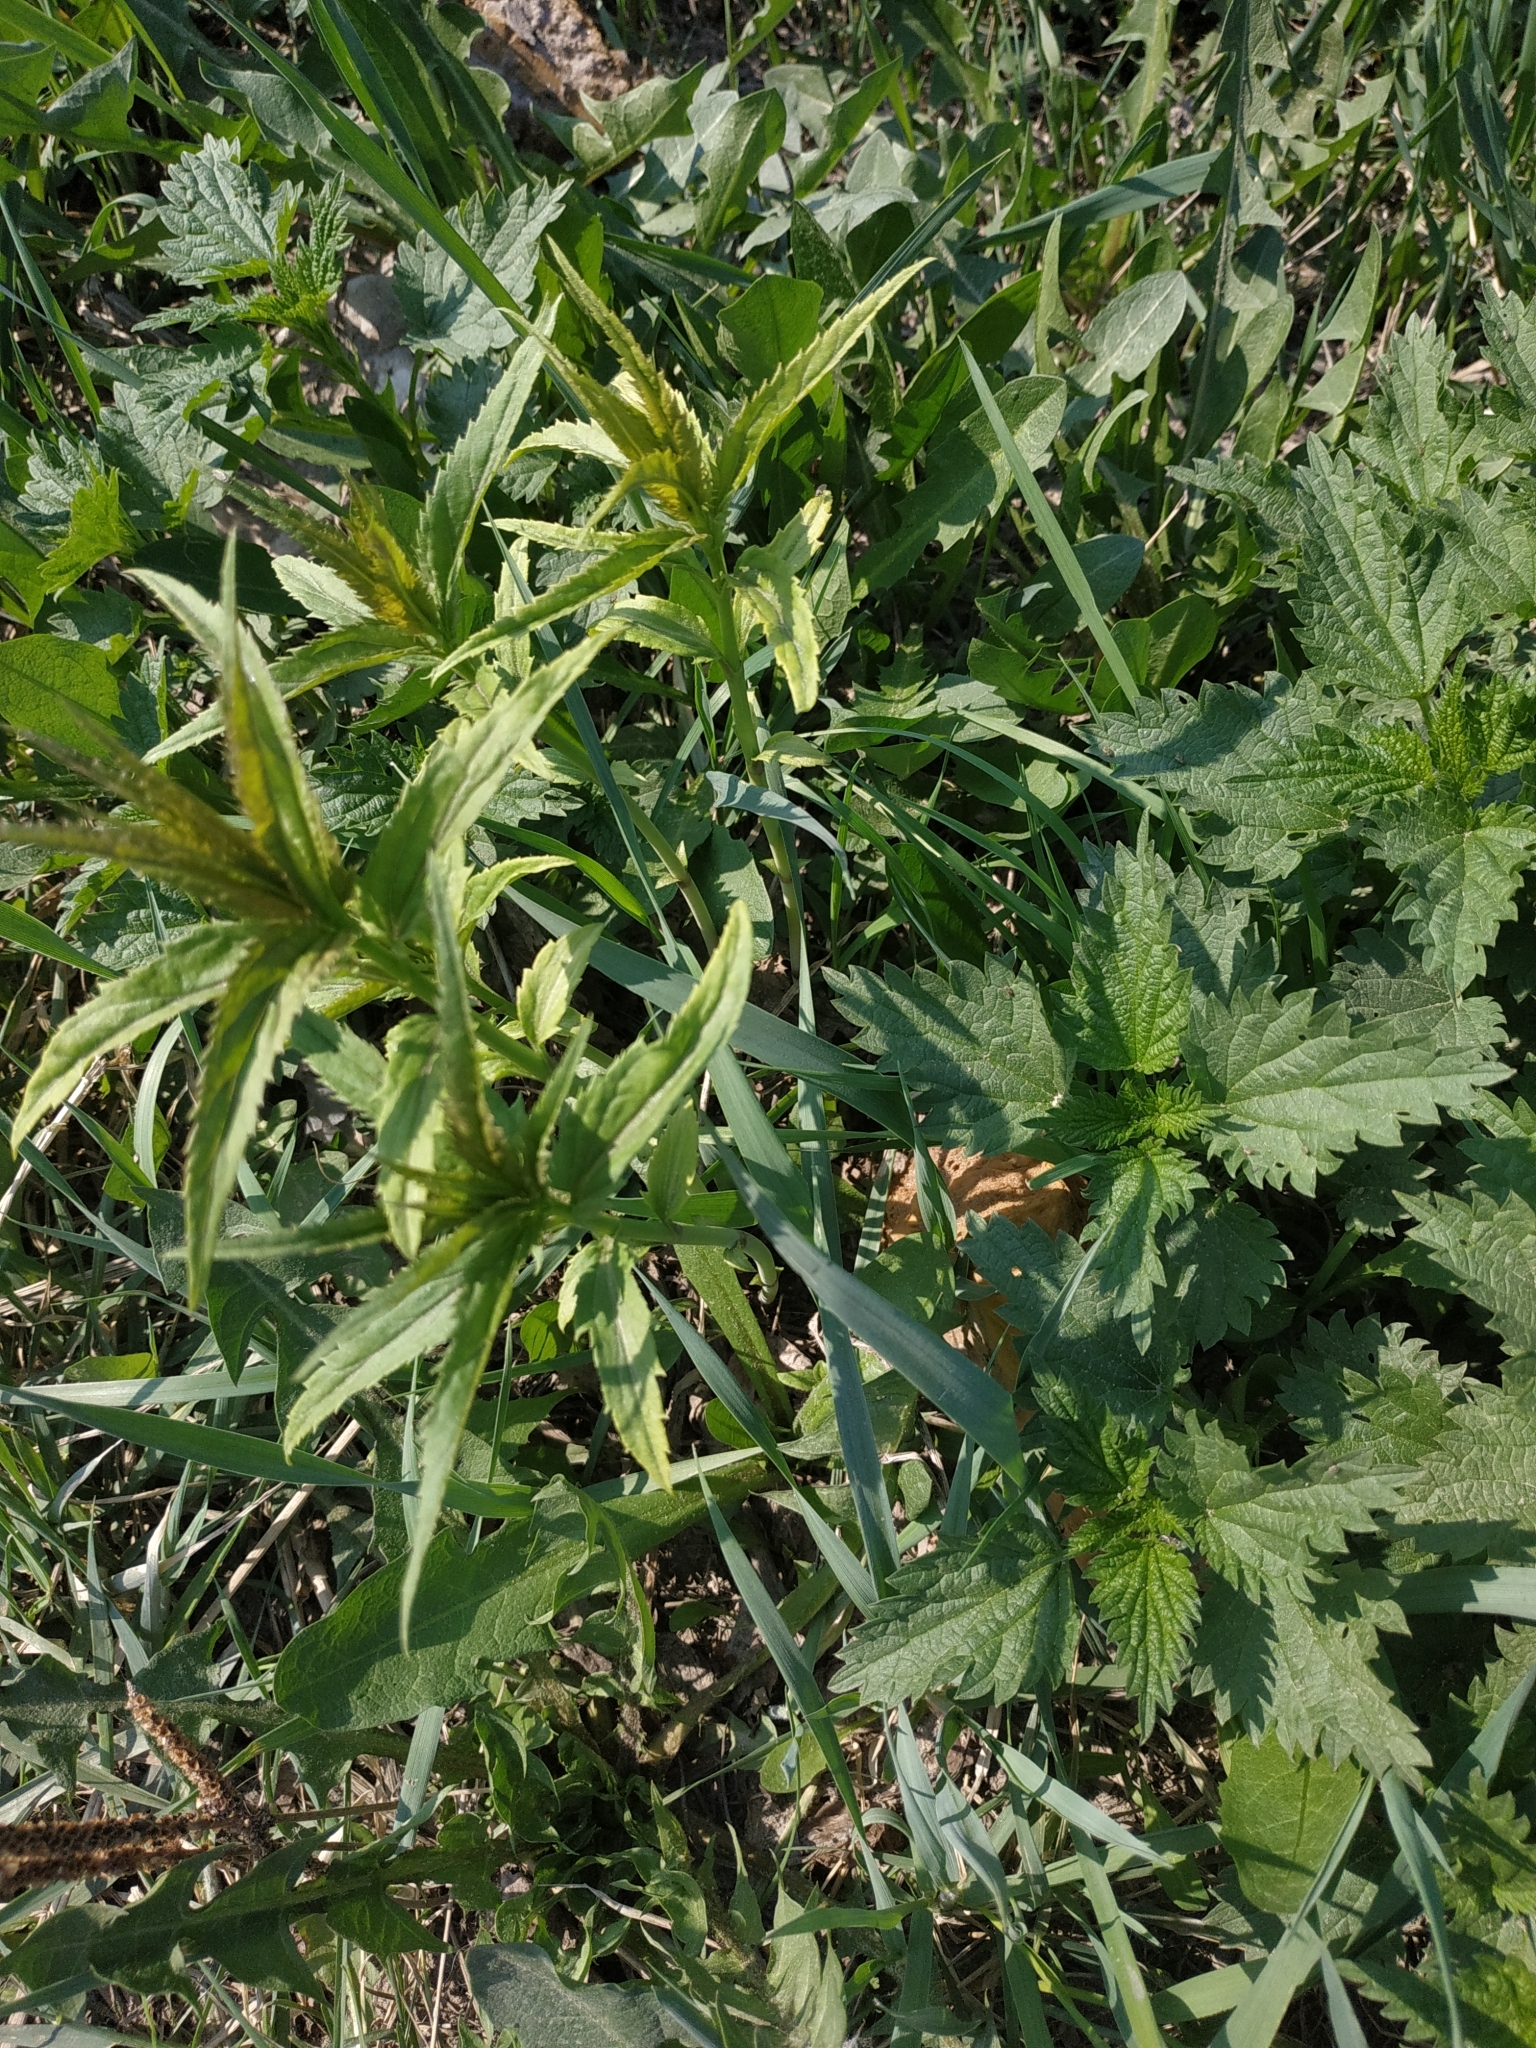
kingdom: Plantae
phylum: Tracheophyta
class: Magnoliopsida
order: Lamiales
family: Plantaginaceae
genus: Veronica
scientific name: Veronica longifolia
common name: Garden speedwell
